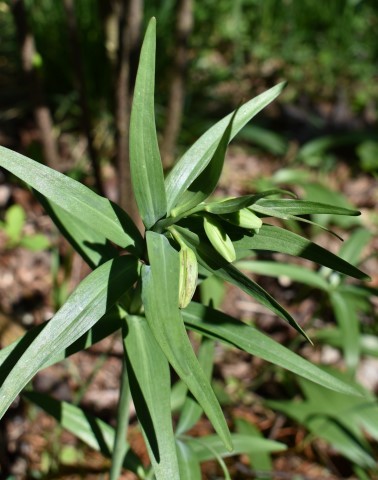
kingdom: Plantae
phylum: Tracheophyta
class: Liliopsida
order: Liliales
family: Liliaceae
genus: Fritillaria
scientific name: Fritillaria affinis
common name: Ojai fritillary
